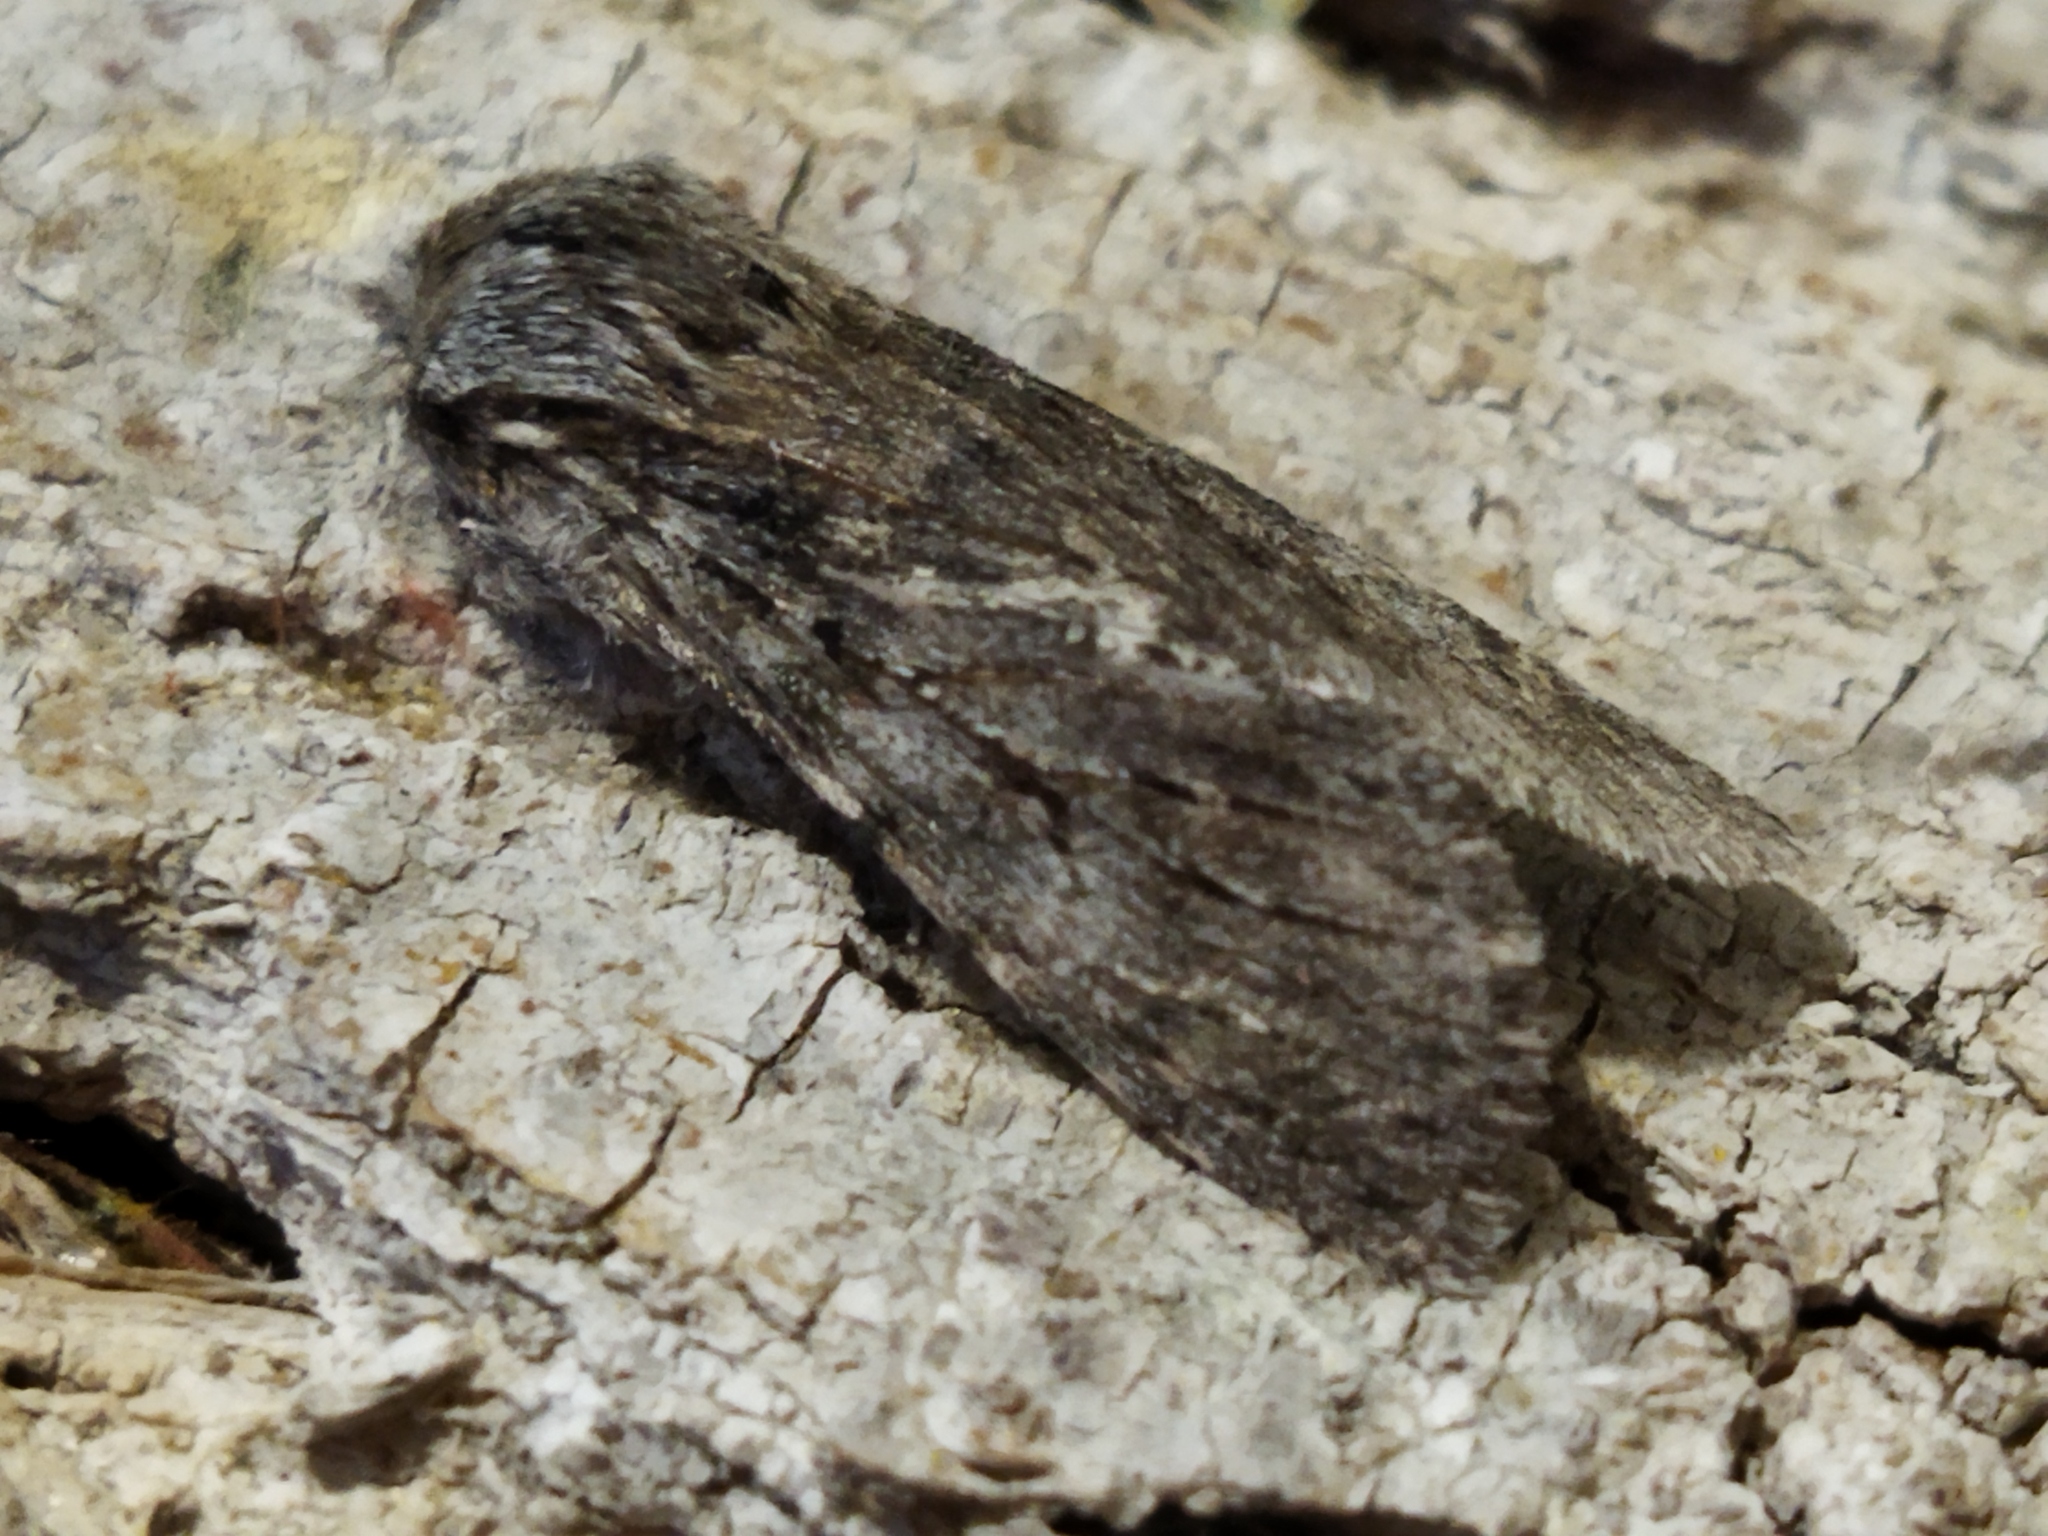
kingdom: Animalia
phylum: Arthropoda
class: Insecta
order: Lepidoptera
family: Notodontidae
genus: Dicranura
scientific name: Dicranura ulmi
